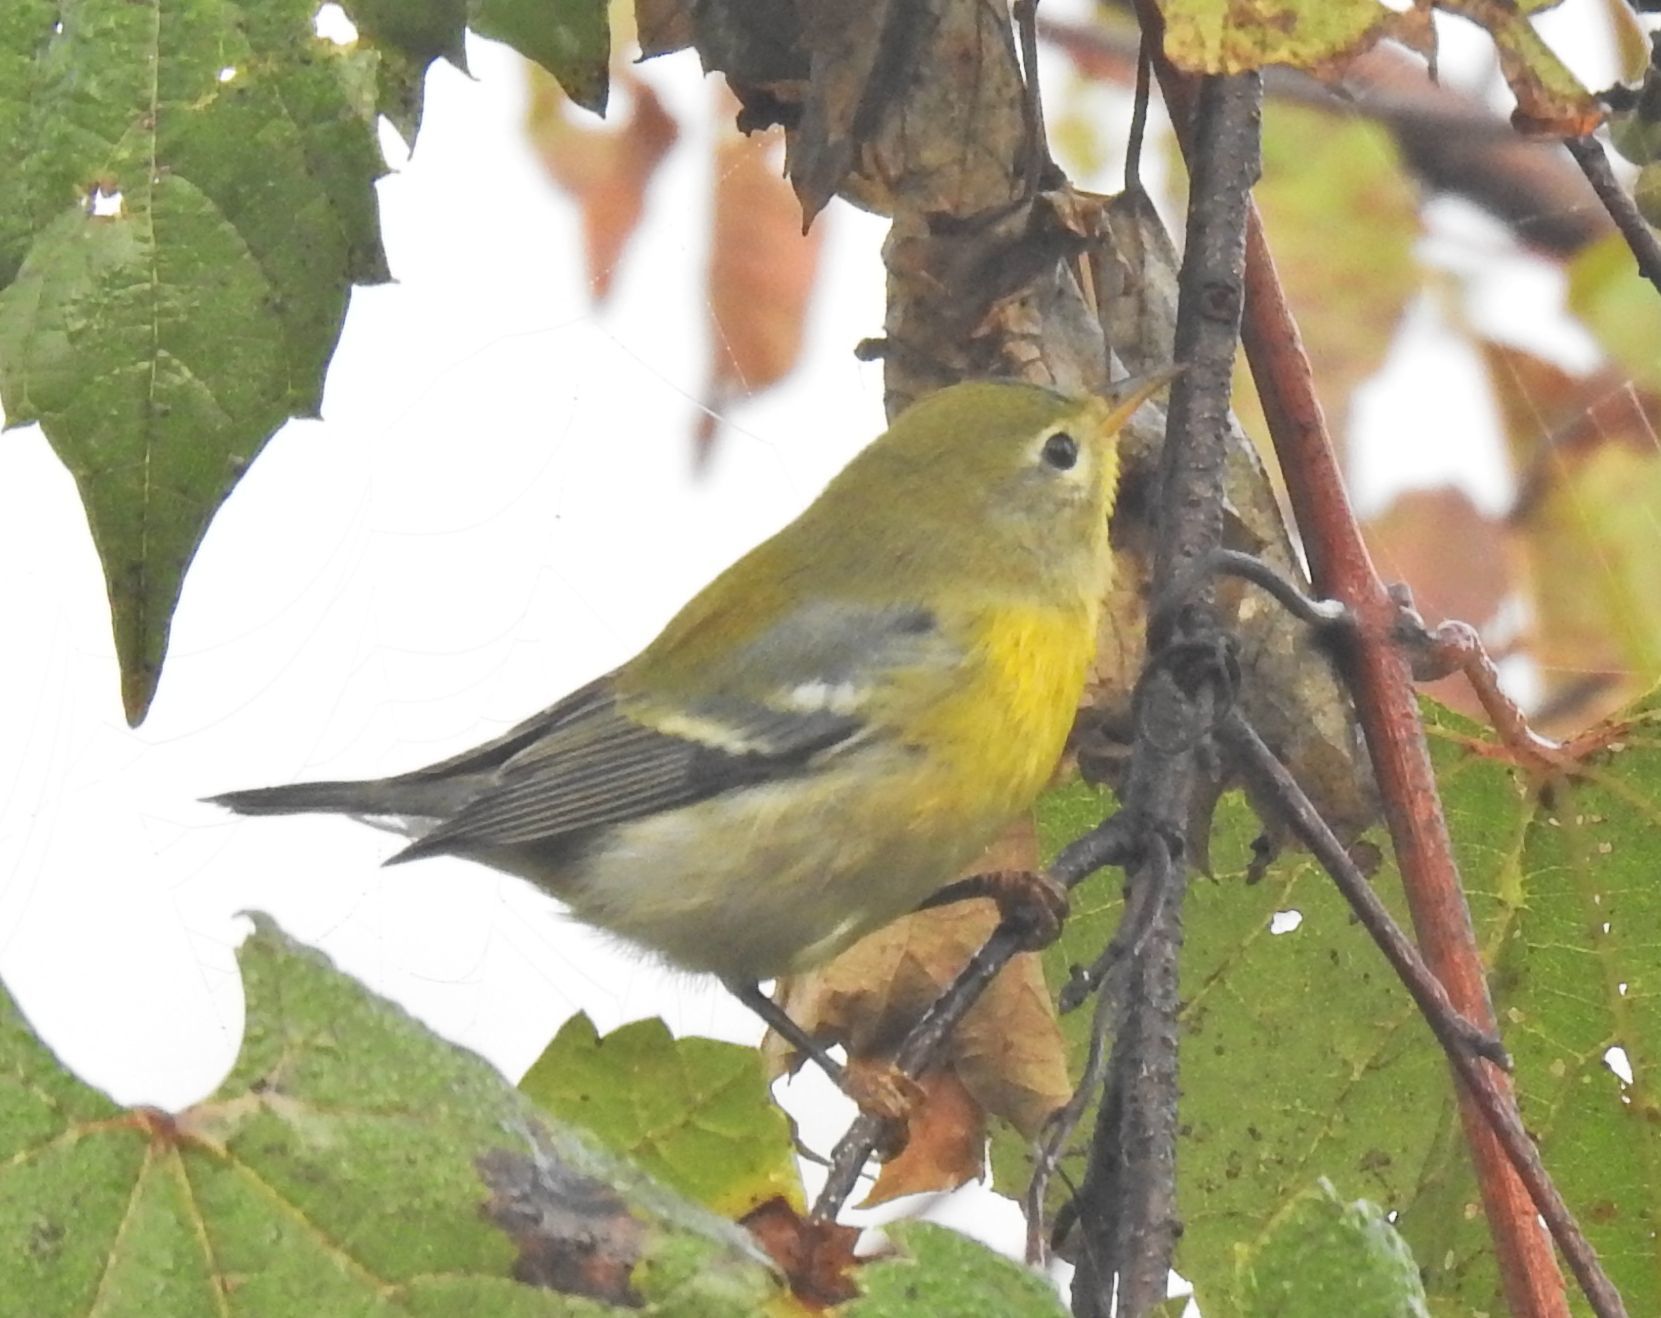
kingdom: Animalia
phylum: Chordata
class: Aves
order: Passeriformes
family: Parulidae
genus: Setophaga
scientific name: Setophaga americana
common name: Northern parula
